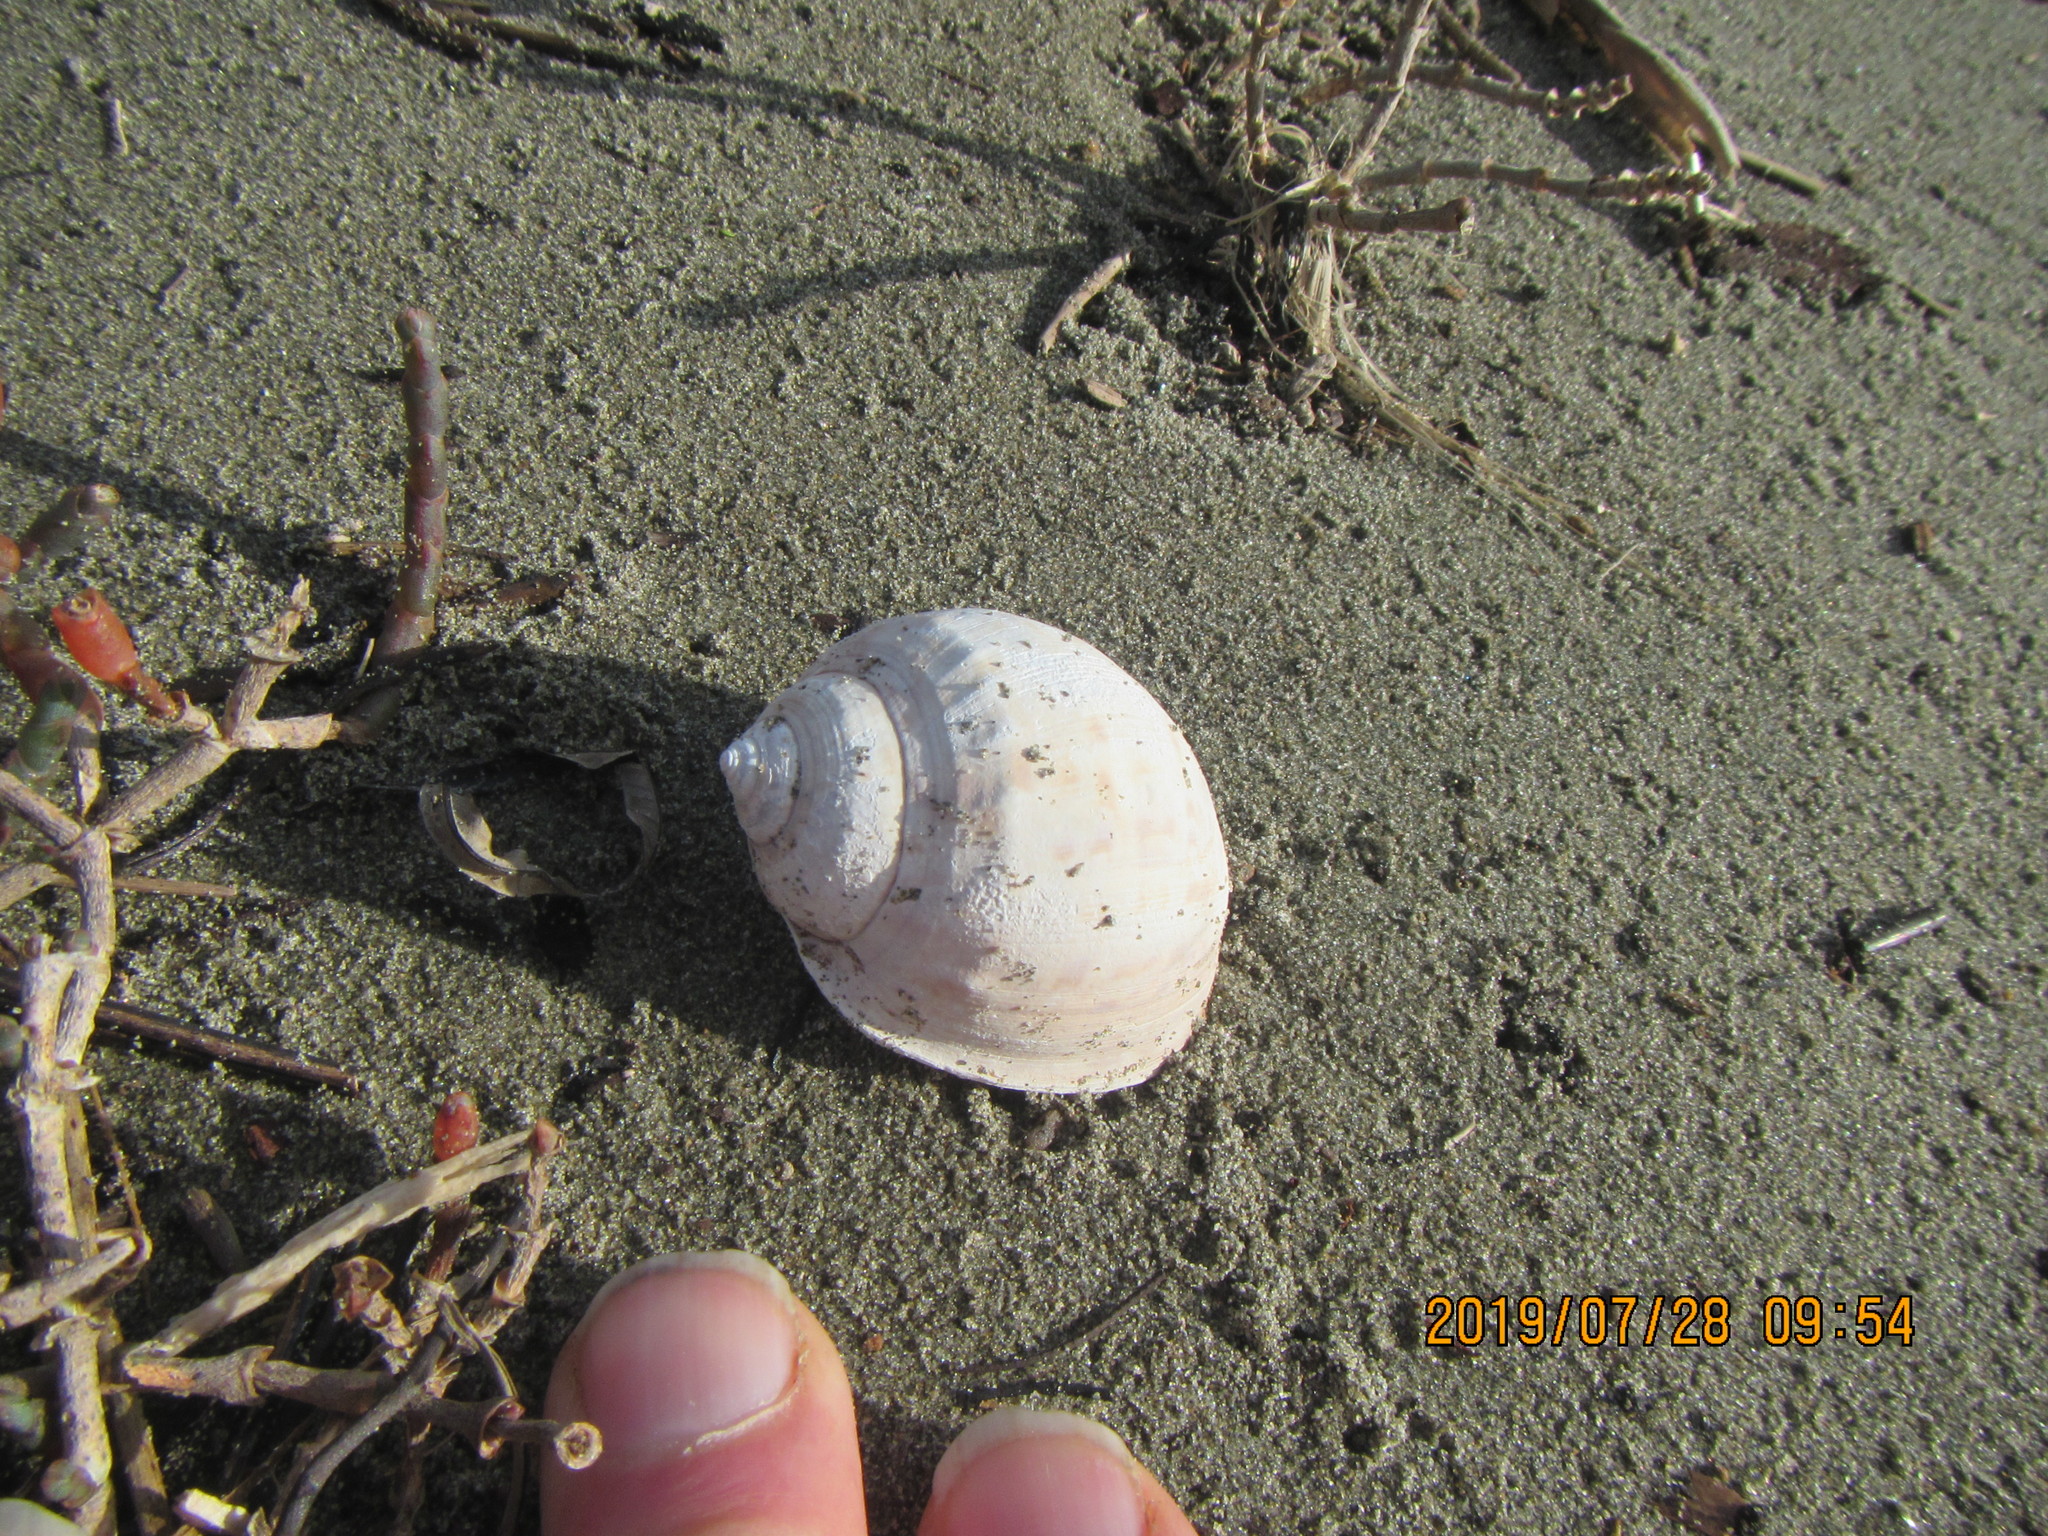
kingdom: Animalia
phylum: Mollusca
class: Gastropoda
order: Littorinimorpha
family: Cassidae
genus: Semicassis
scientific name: Semicassis pyrum
